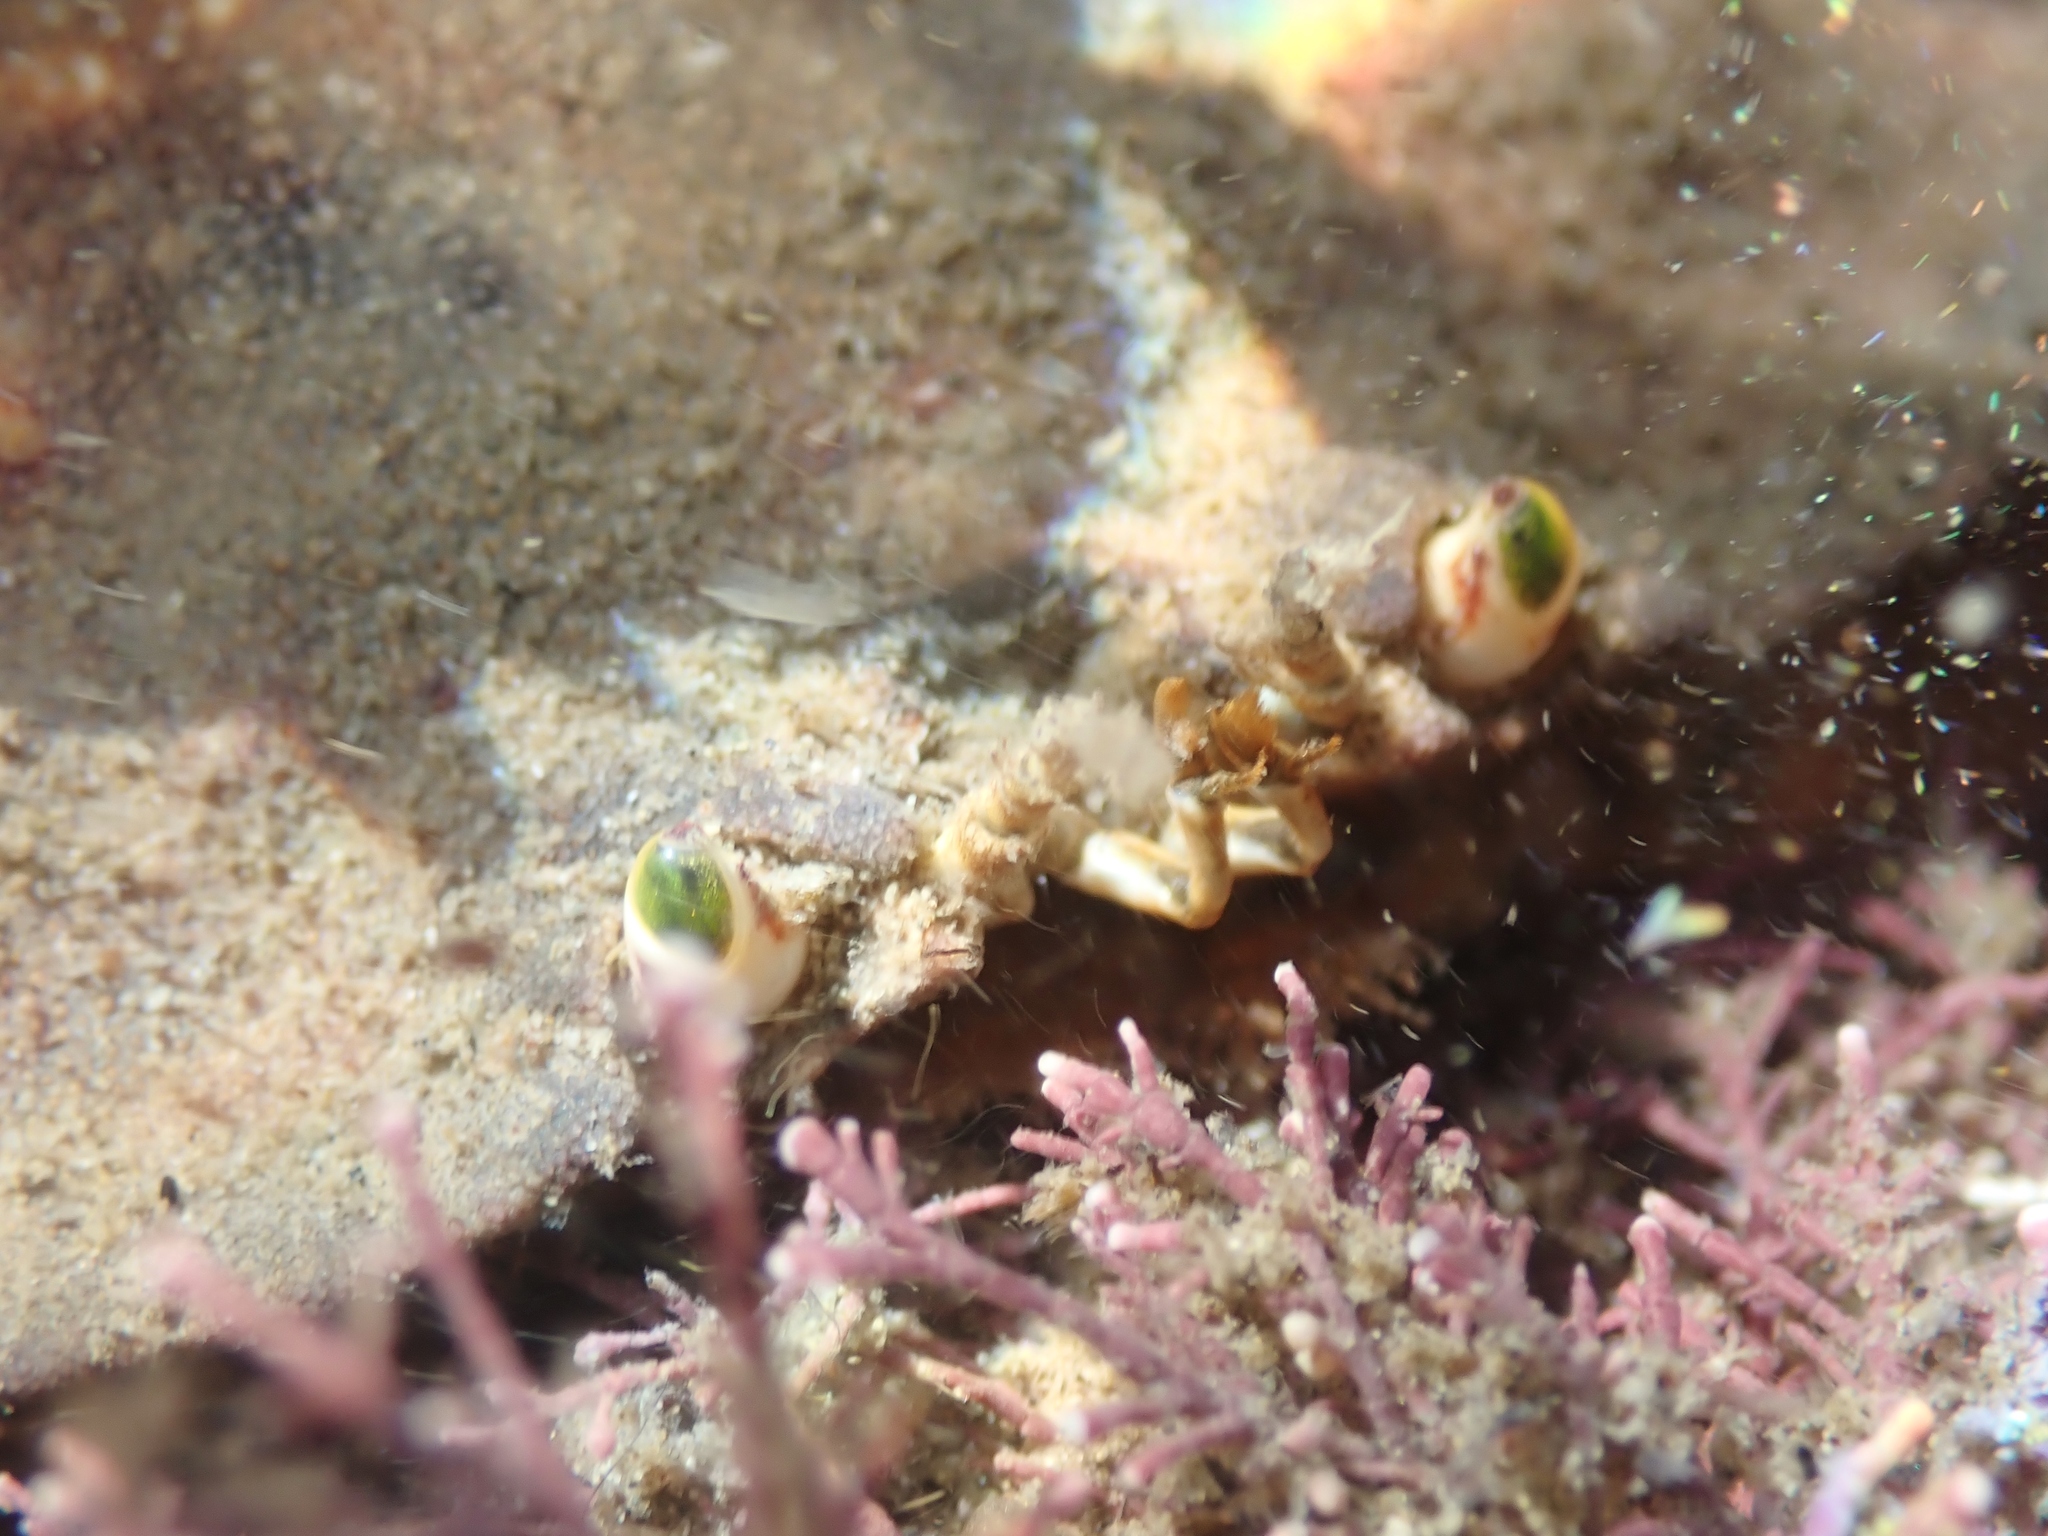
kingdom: Animalia
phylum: Arthropoda
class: Malacostraca
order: Decapoda
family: Cancridae
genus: Metacarcinus
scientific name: Metacarcinus novaezelandiae
